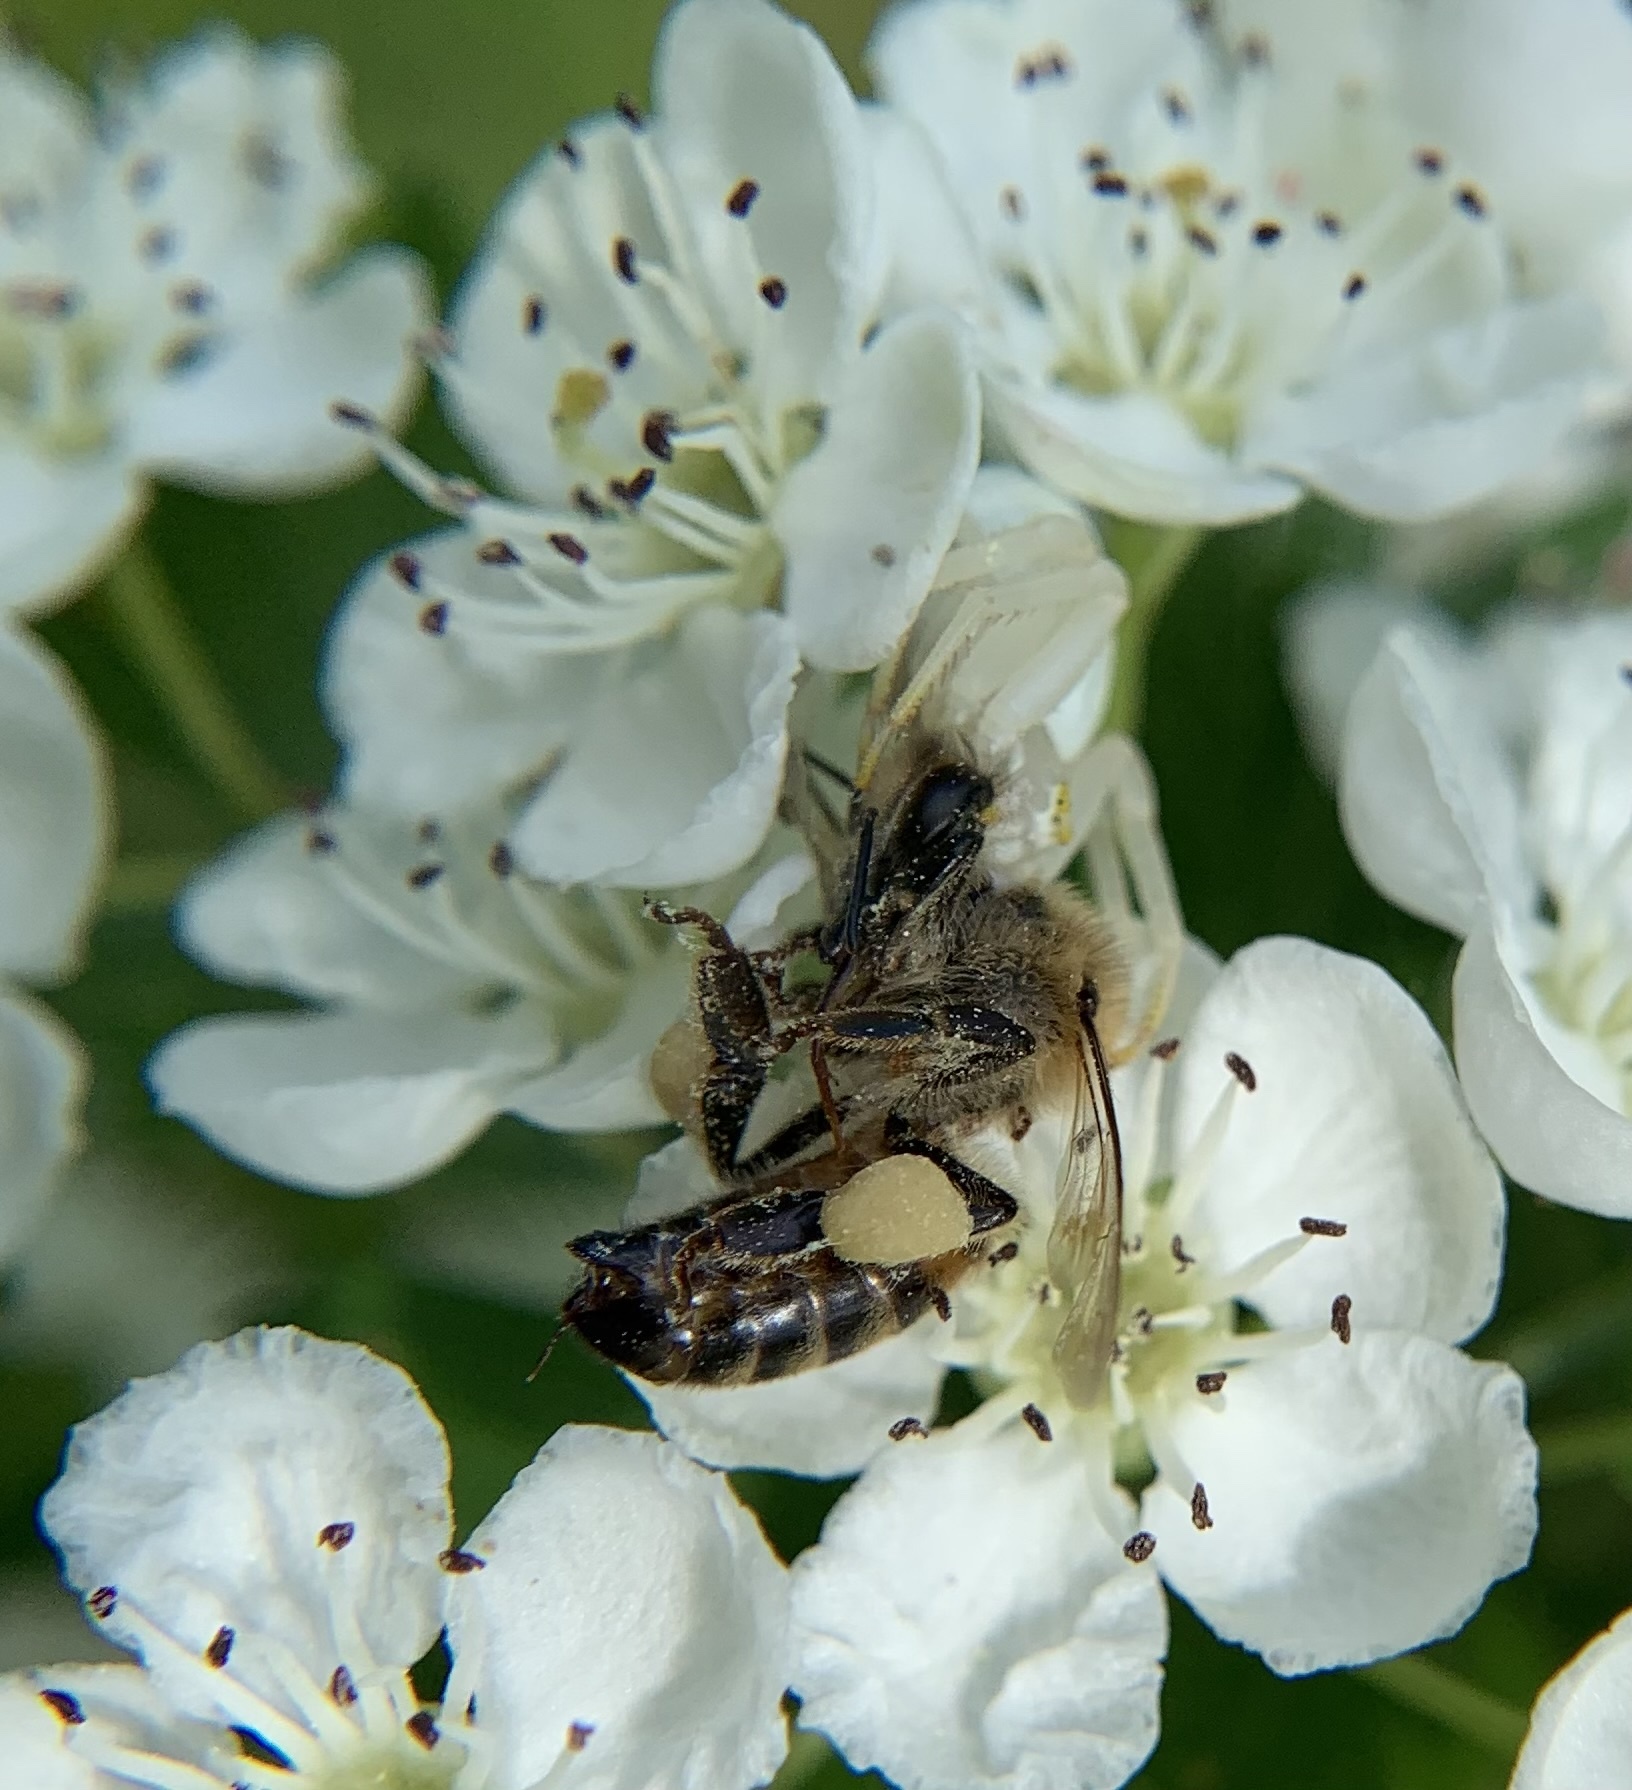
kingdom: Animalia
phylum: Arthropoda
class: Arachnida
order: Araneae
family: Thomisidae
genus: Misumena
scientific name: Misumena vatia
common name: Goldenrod crab spider
